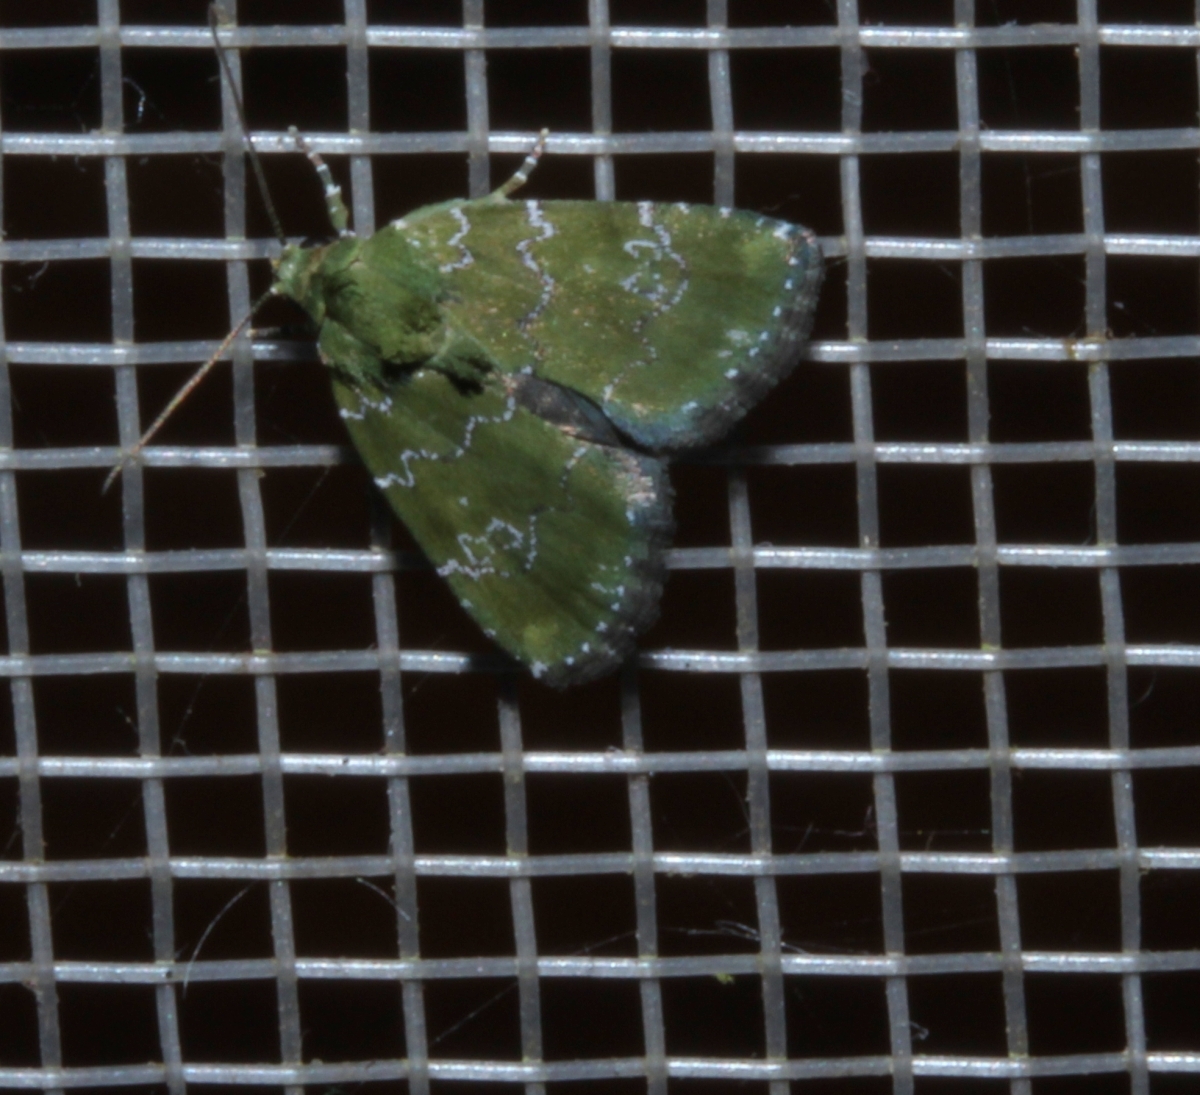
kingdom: Animalia
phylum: Arthropoda
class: Insecta
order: Lepidoptera
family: Noctuidae
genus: Lithacodia
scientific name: Lithacodia
